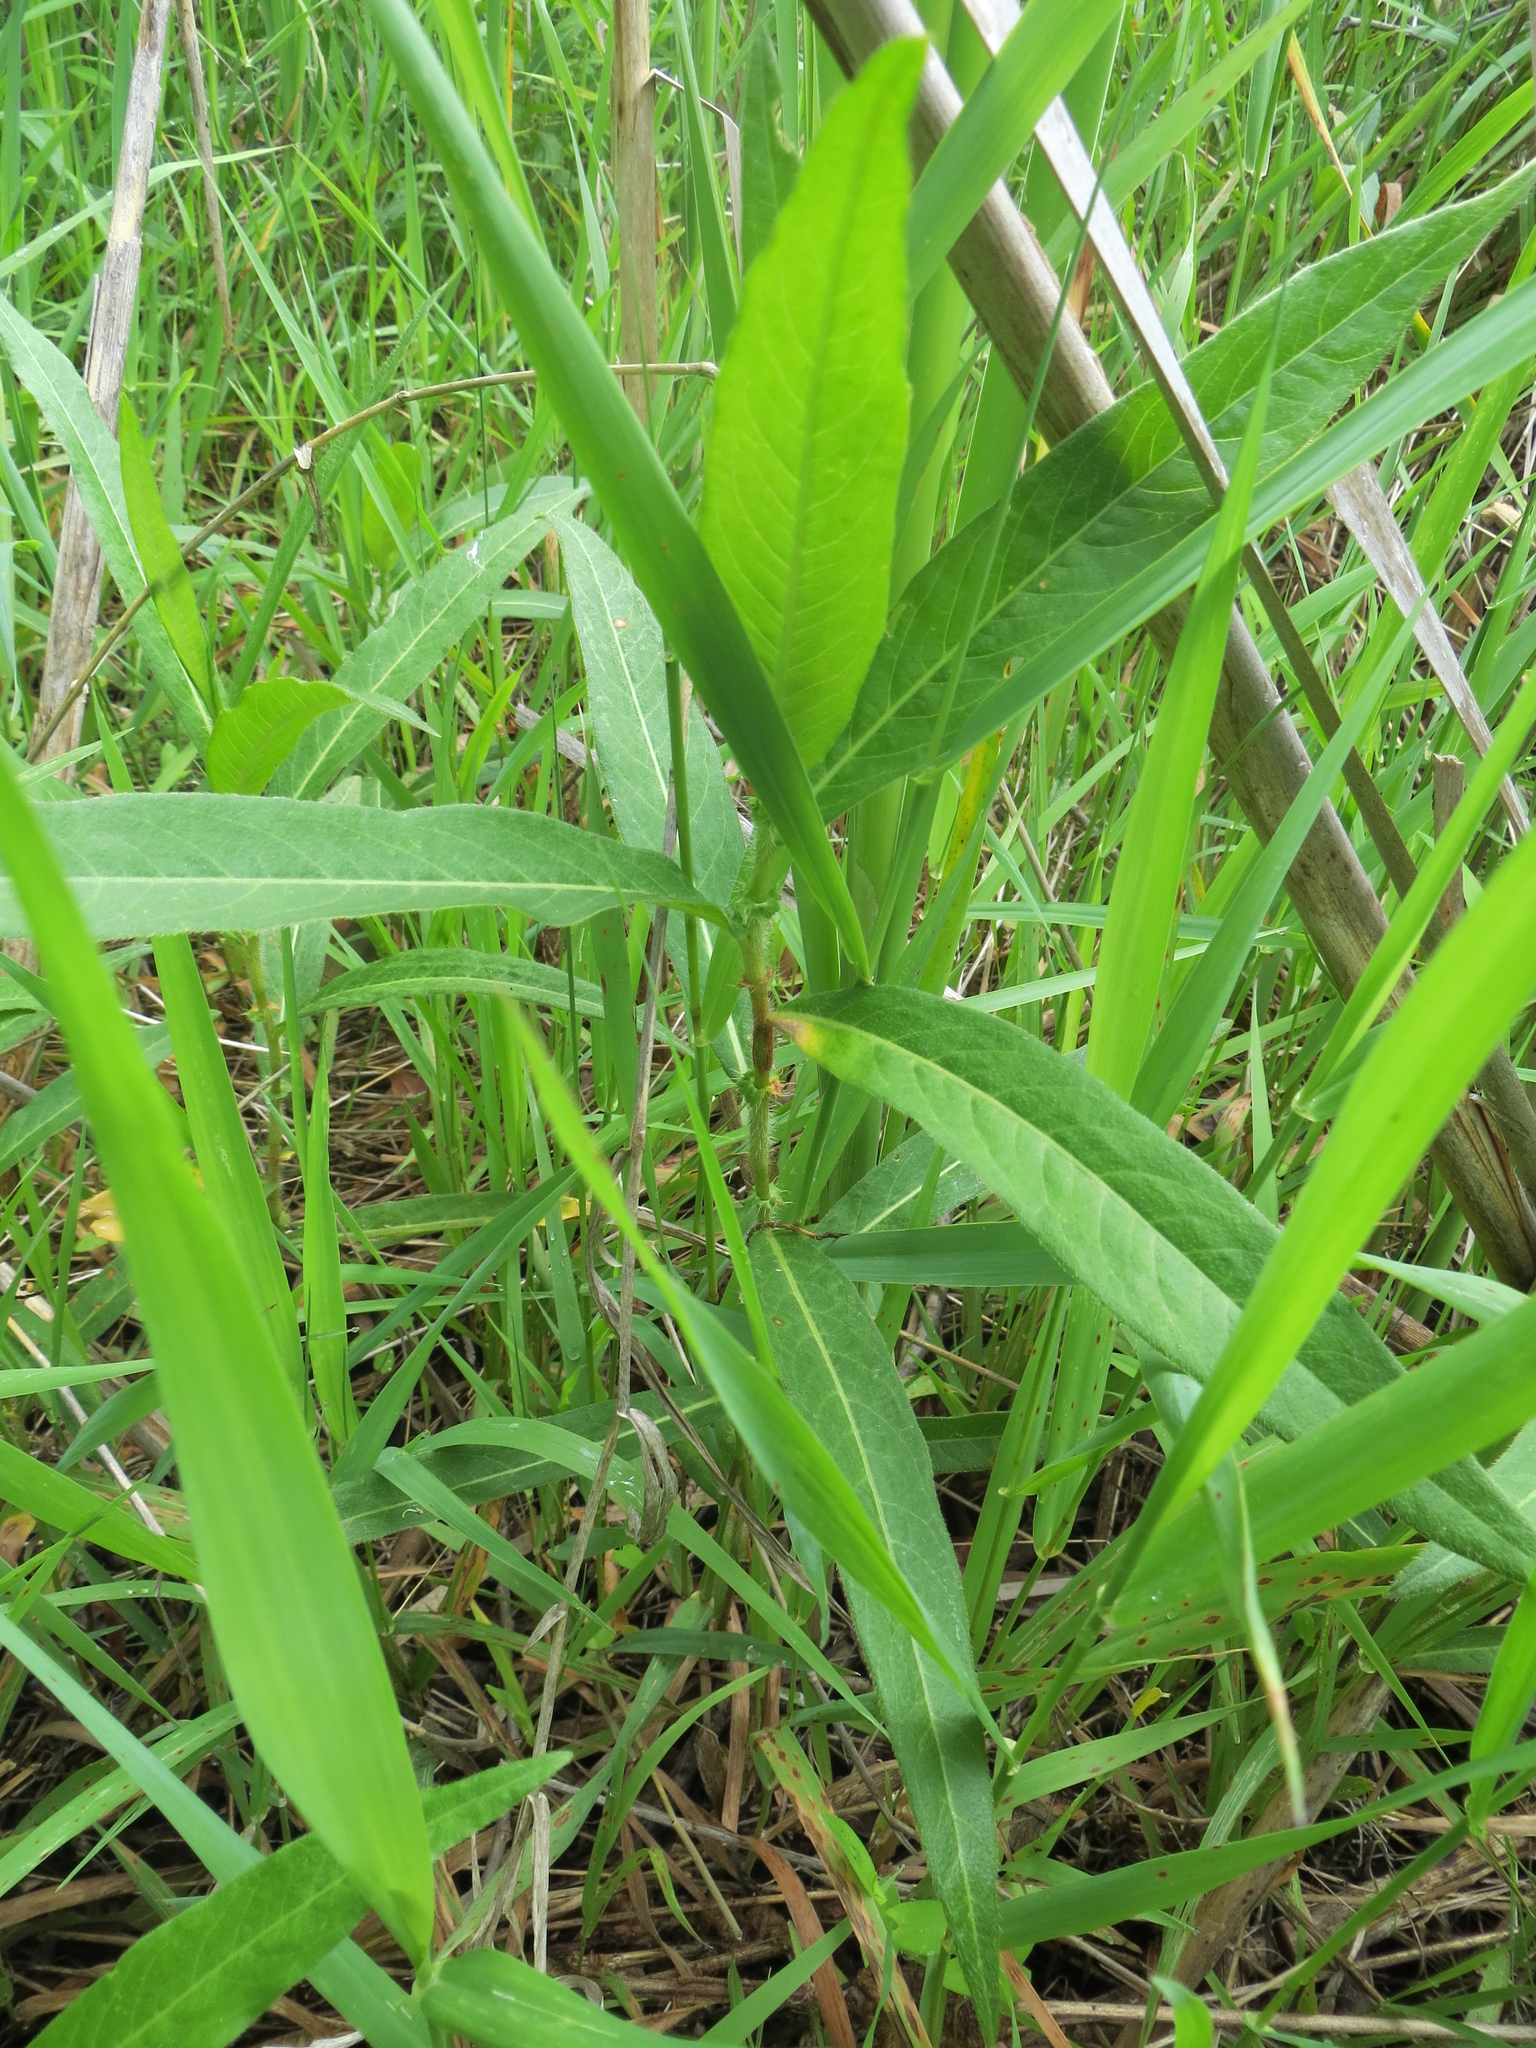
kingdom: Plantae
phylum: Tracheophyta
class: Magnoliopsida
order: Caryophyllales
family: Polygonaceae
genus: Persicaria
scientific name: Persicaria amphibia
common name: Amphibious bistort
